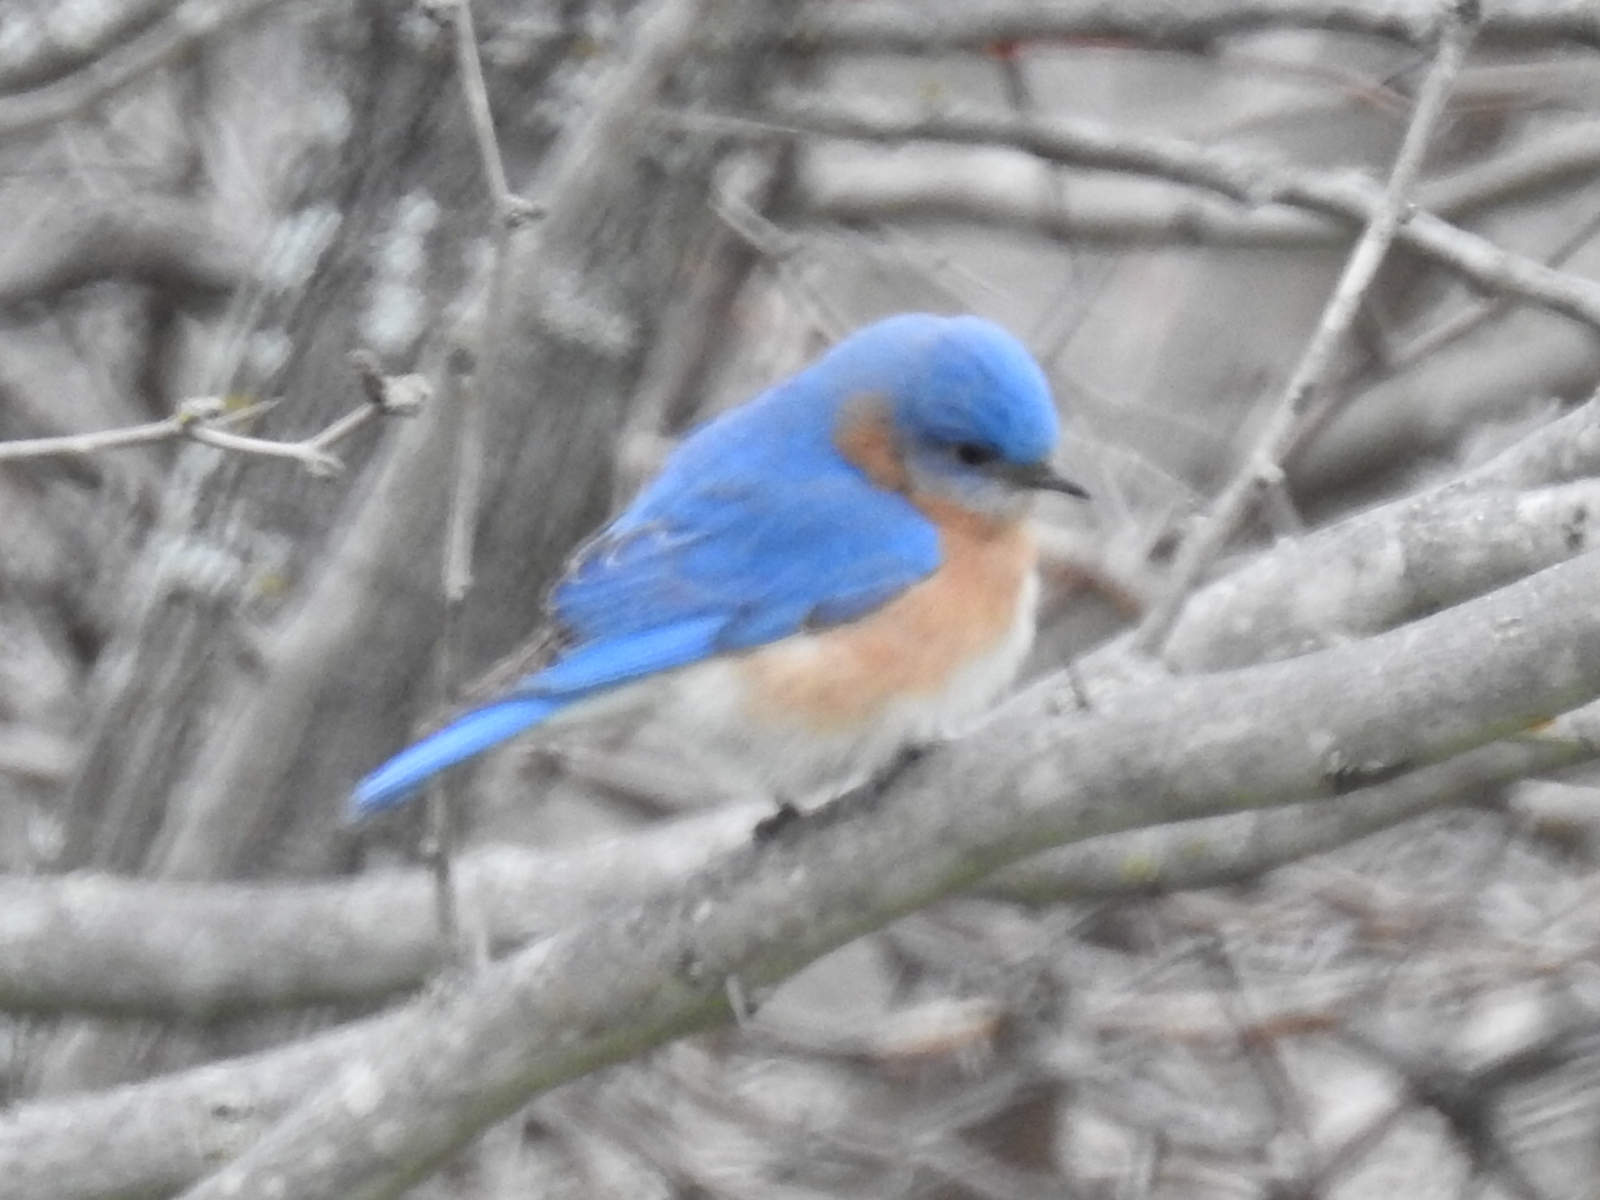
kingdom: Animalia
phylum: Chordata
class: Aves
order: Passeriformes
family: Turdidae
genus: Sialia
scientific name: Sialia sialis
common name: Eastern bluebird
